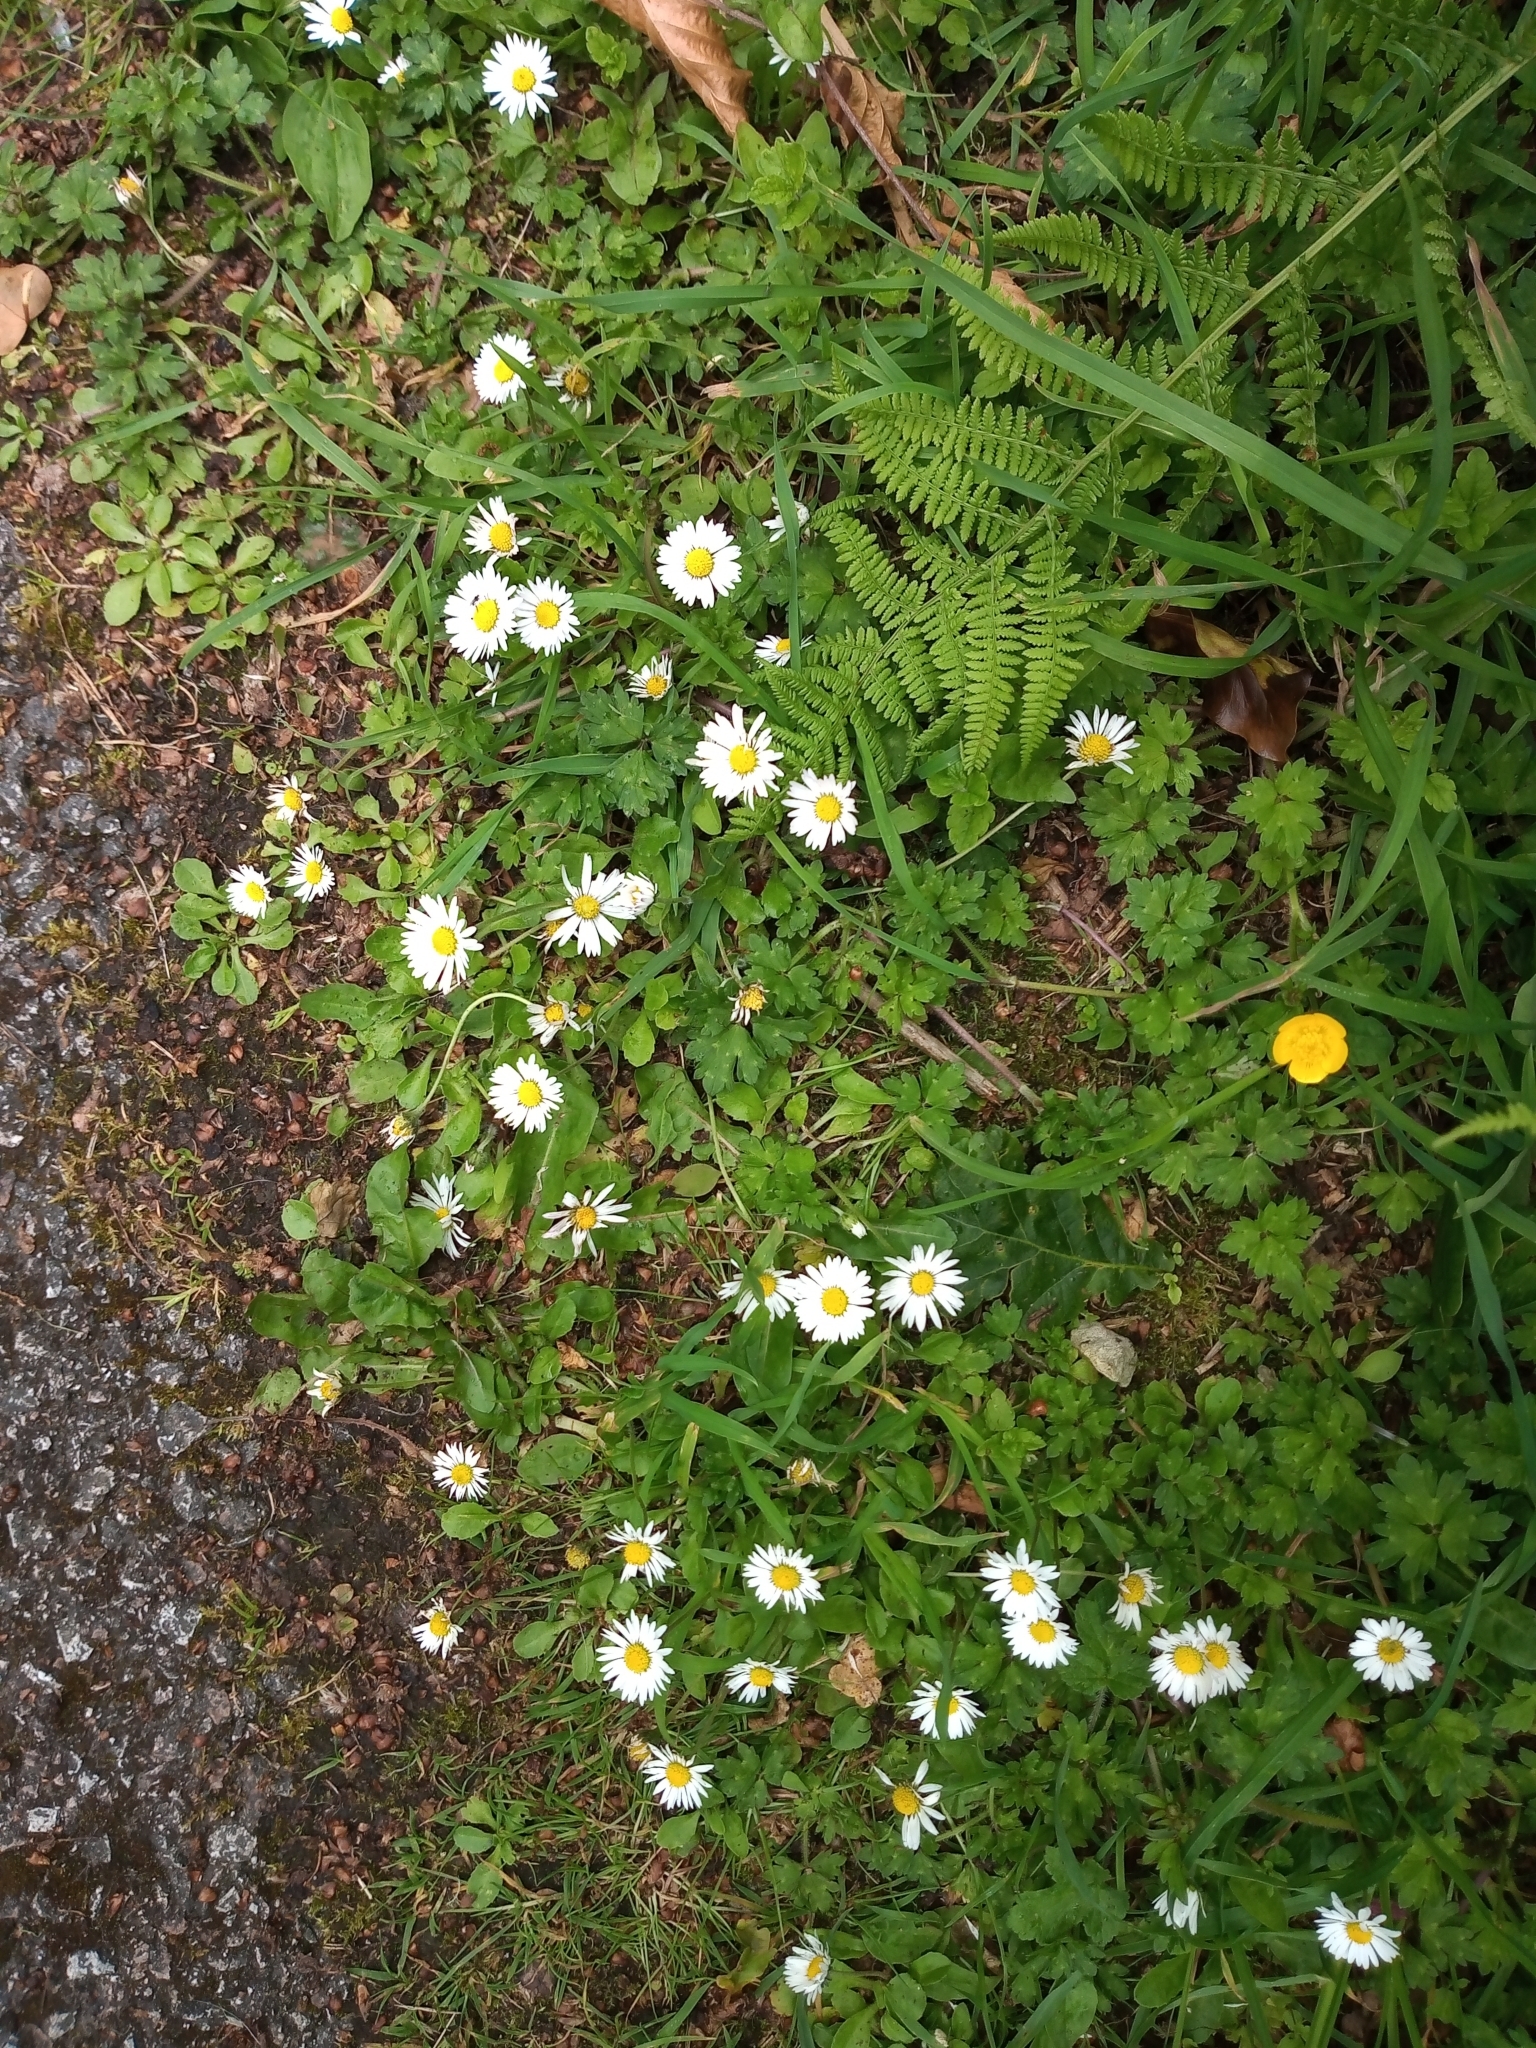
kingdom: Plantae
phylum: Tracheophyta
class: Magnoliopsida
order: Asterales
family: Asteraceae
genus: Bellis
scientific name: Bellis perennis
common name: Lawndaisy
